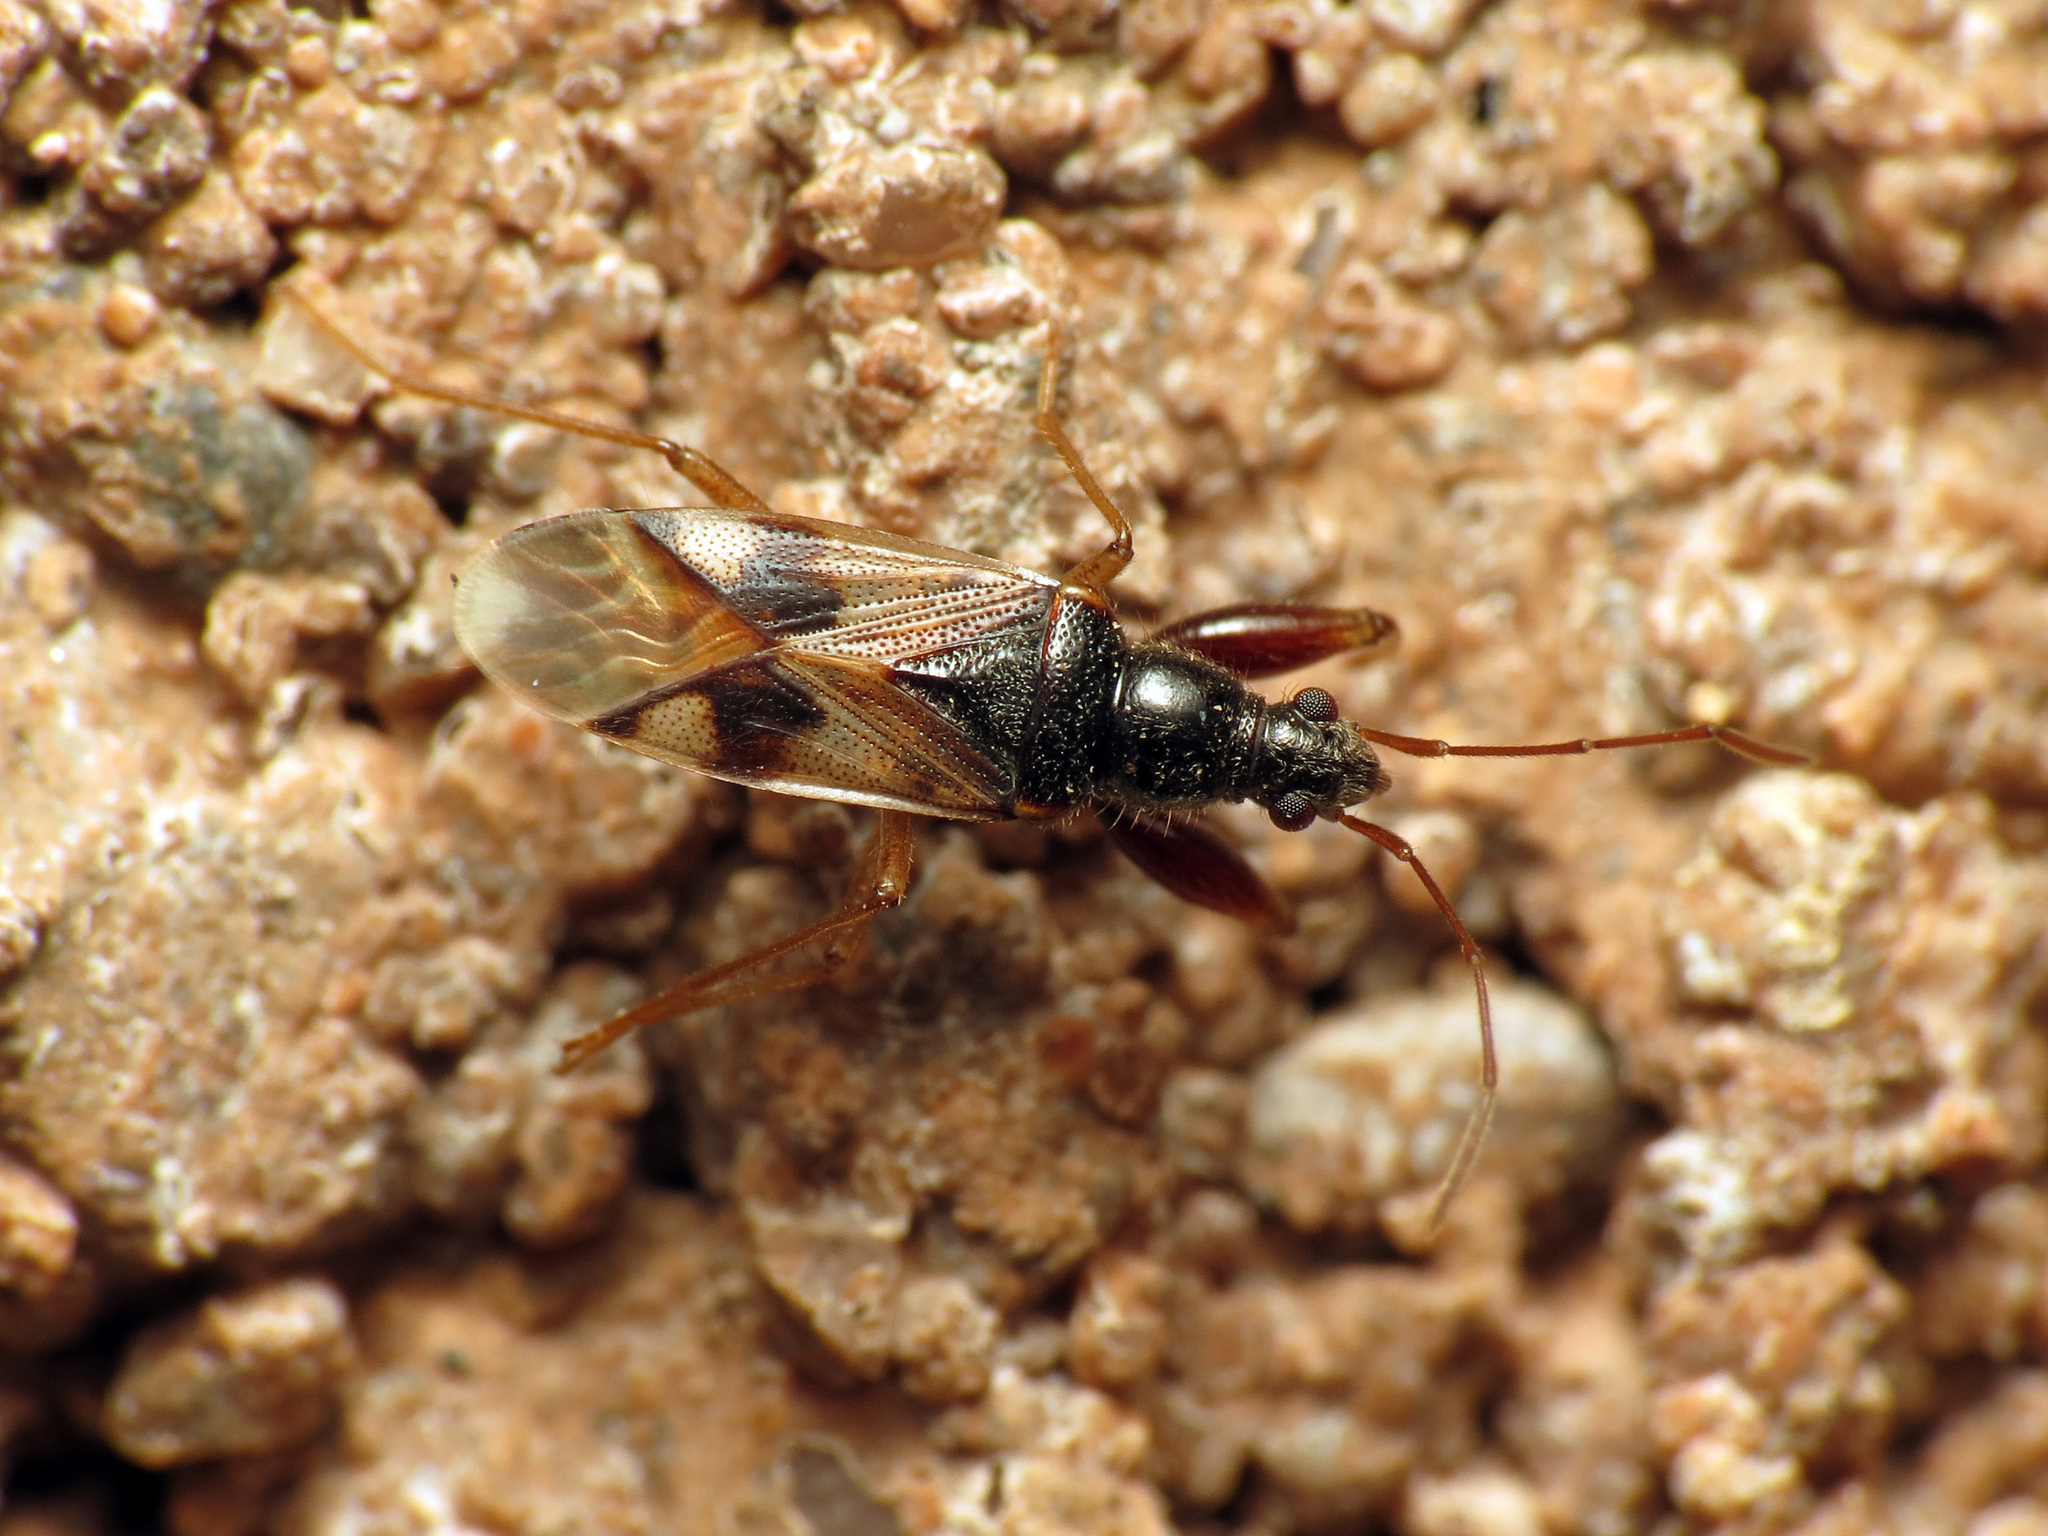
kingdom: Animalia
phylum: Arthropoda
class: Insecta
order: Hemiptera
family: Rhyparochromidae
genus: Pseudopamera
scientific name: Pseudopamera nitidula
